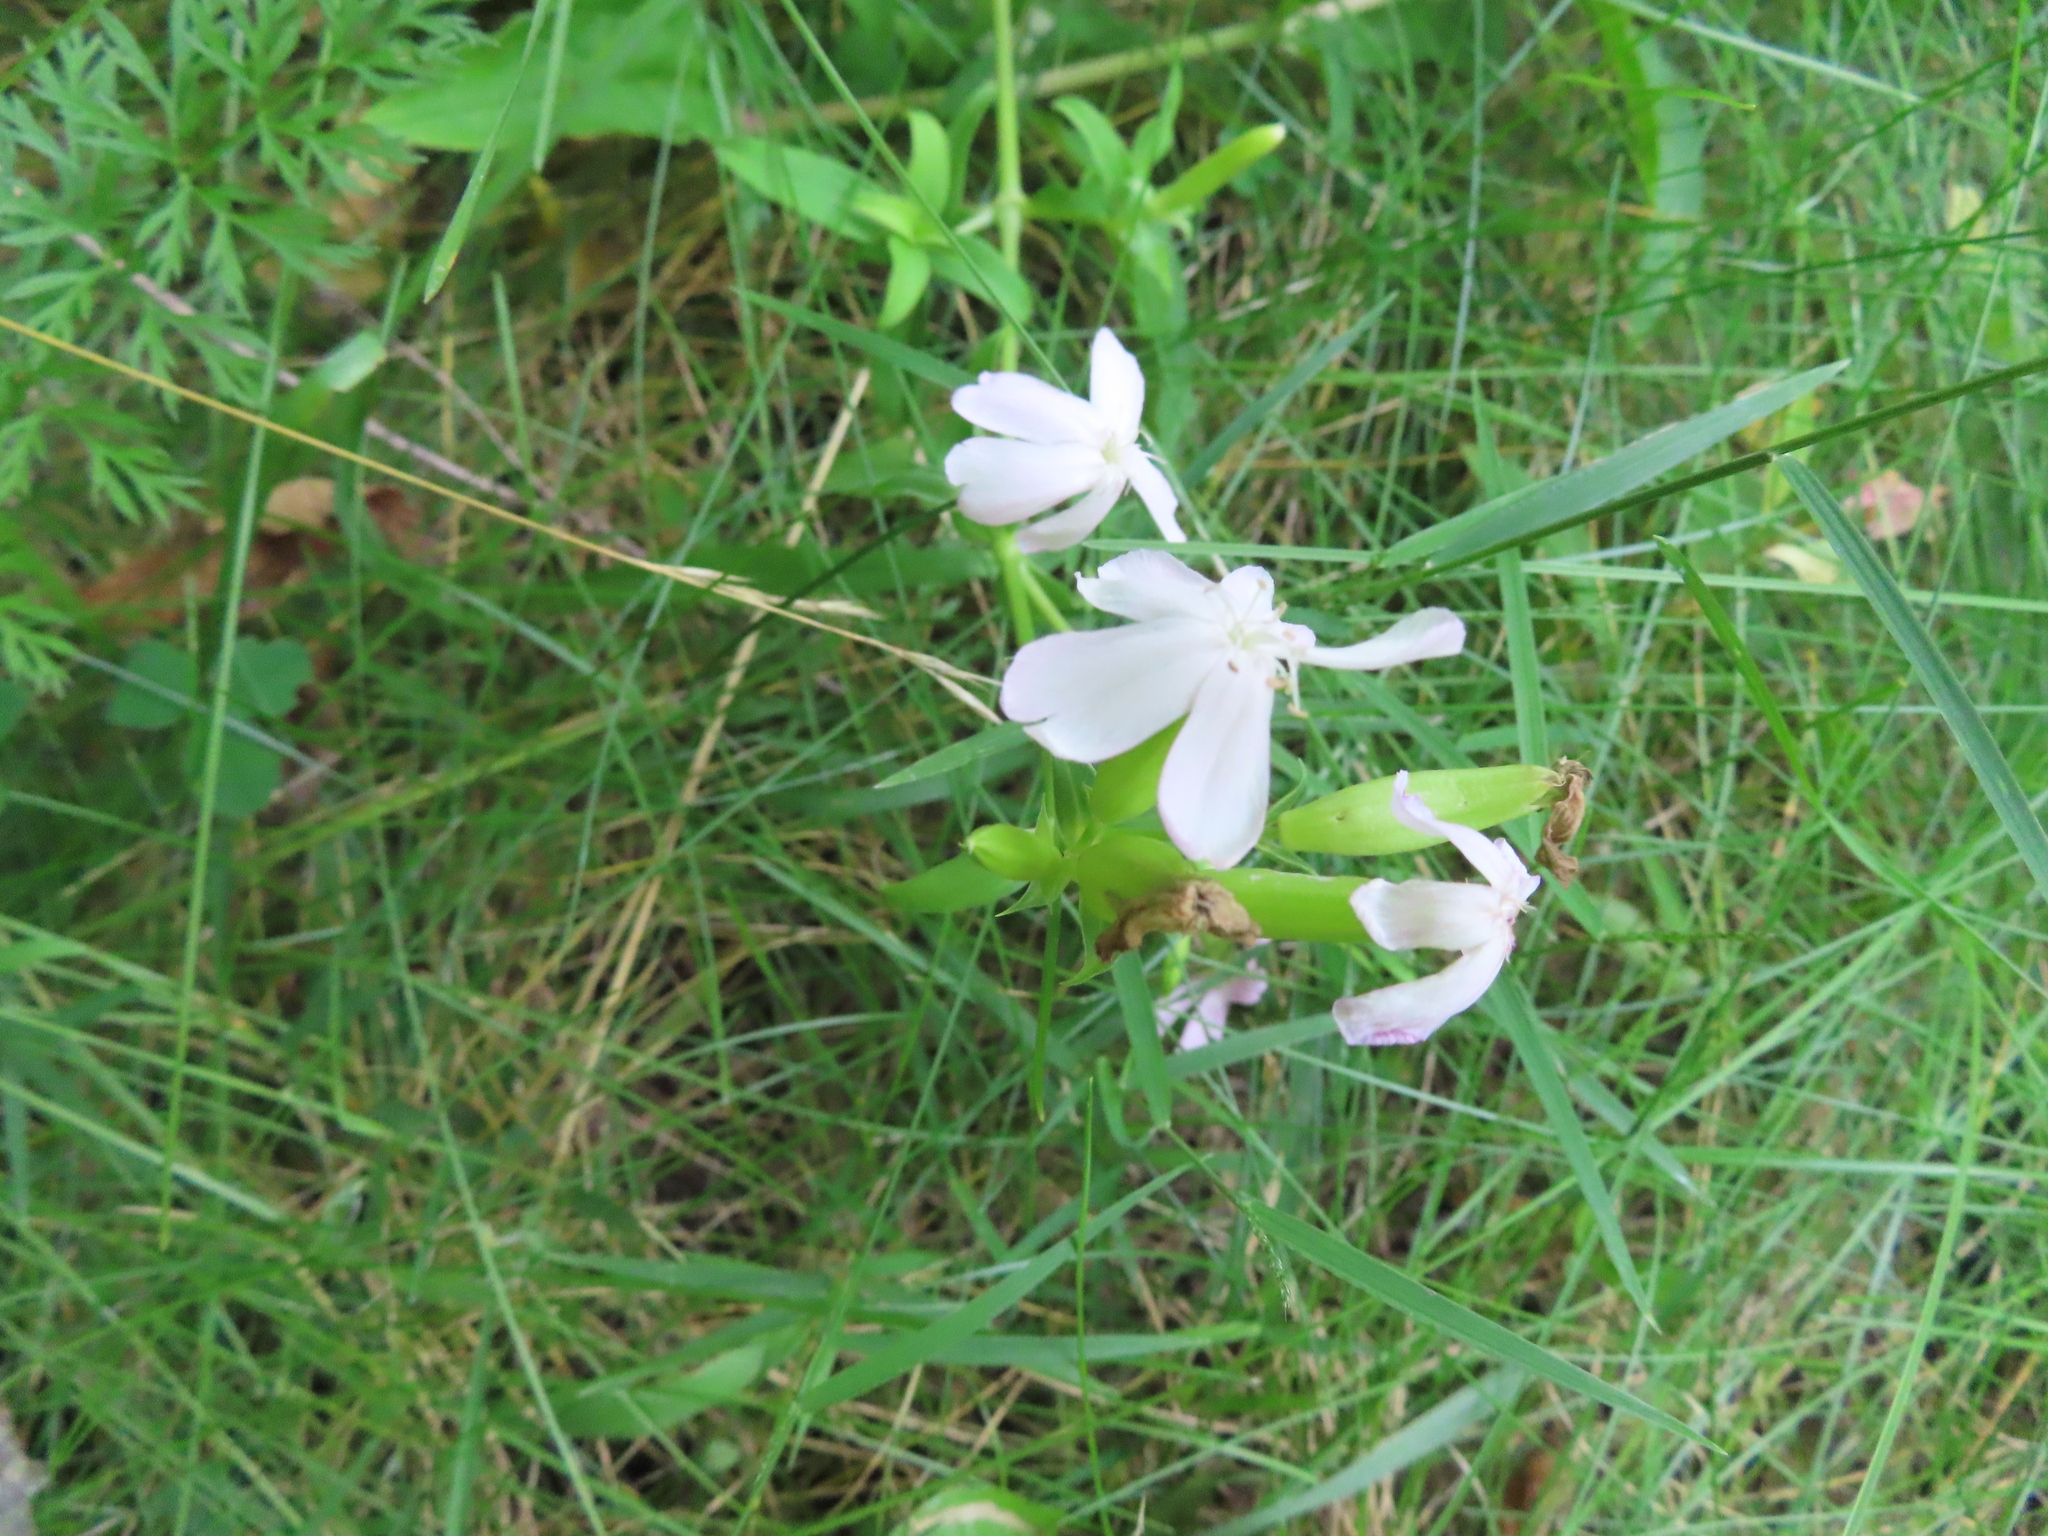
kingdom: Plantae
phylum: Tracheophyta
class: Magnoliopsida
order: Caryophyllales
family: Caryophyllaceae
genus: Saponaria
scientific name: Saponaria officinalis
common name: Soapwort
